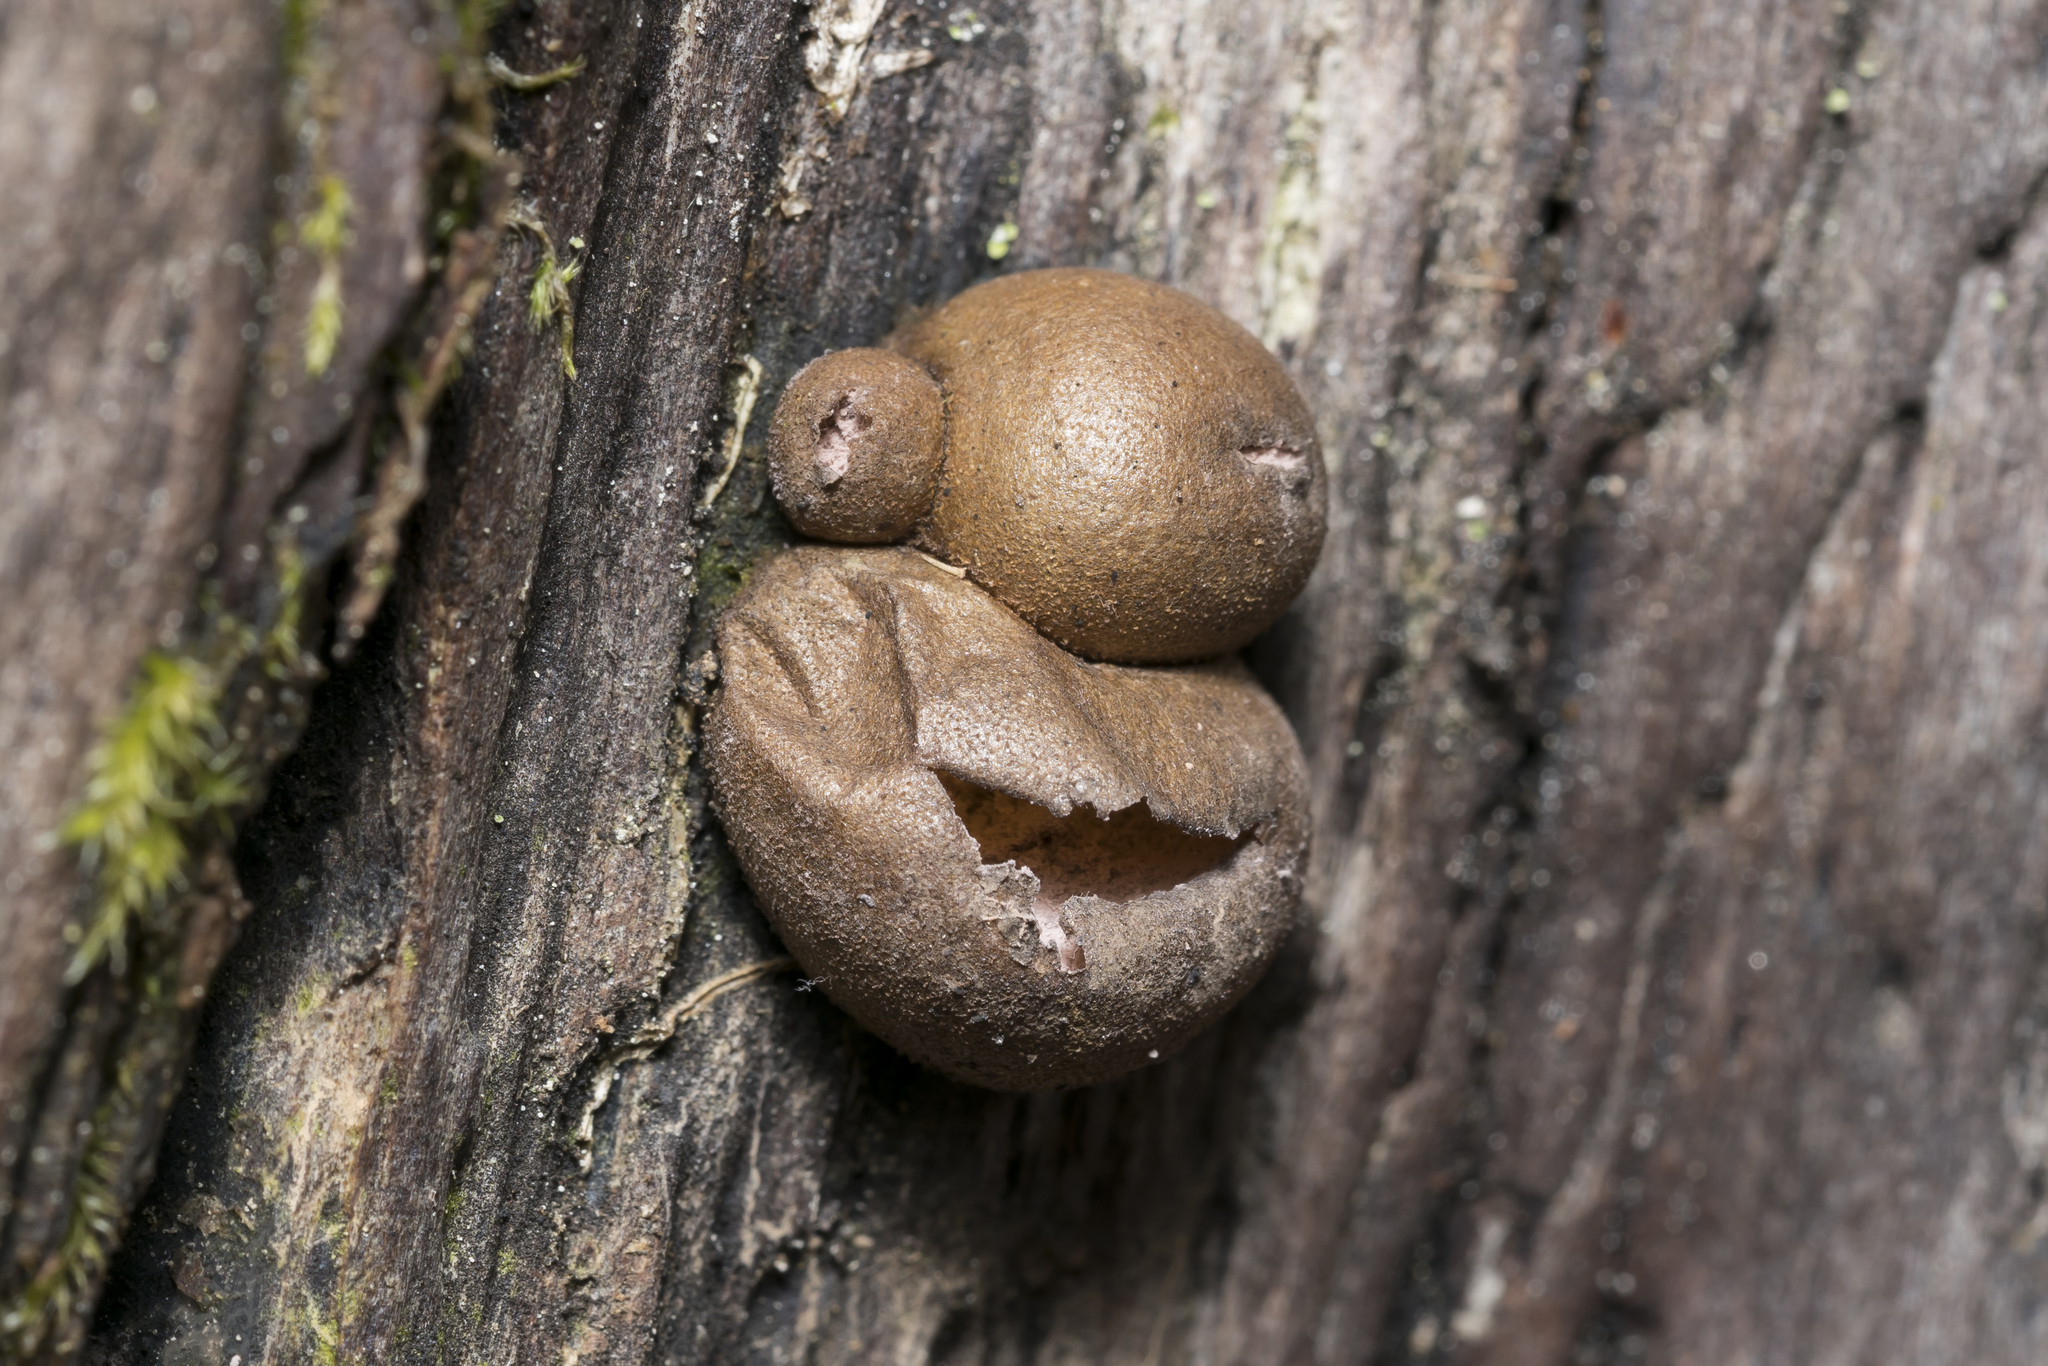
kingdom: Protozoa
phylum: Mycetozoa
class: Myxomycetes
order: Cribrariales
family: Tubiferaceae
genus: Lycogala
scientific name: Lycogala epidendrum
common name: Wolf's milk
